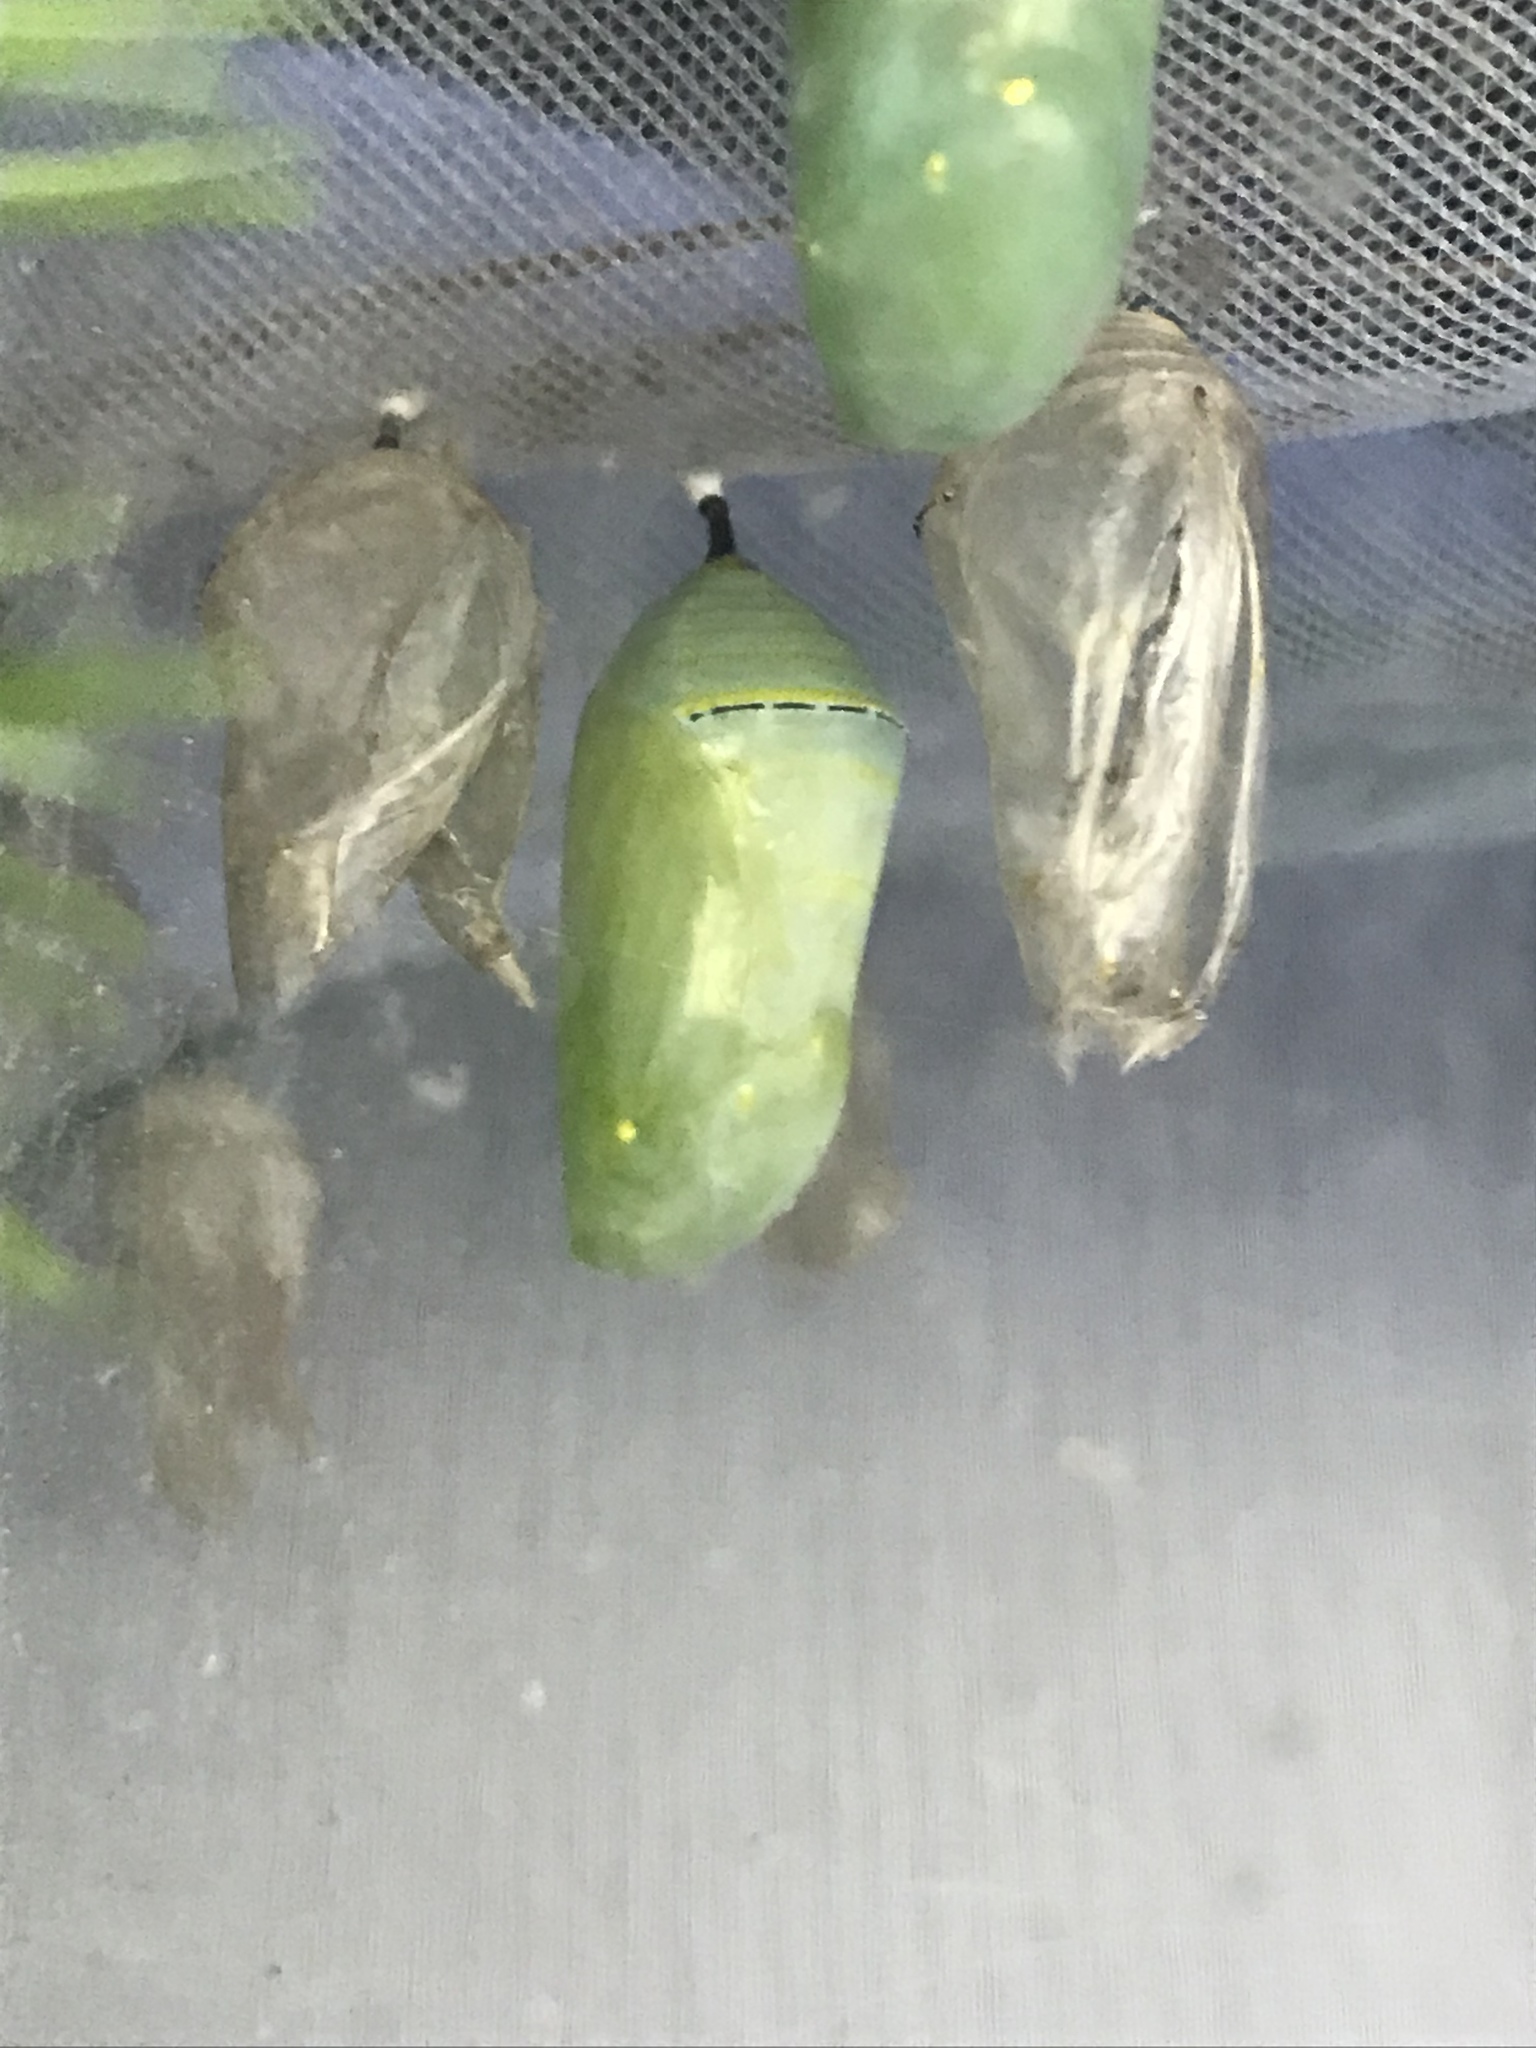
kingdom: Animalia
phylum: Arthropoda
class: Insecta
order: Lepidoptera
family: Nymphalidae
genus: Danaus
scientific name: Danaus plexippus
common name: Monarch
